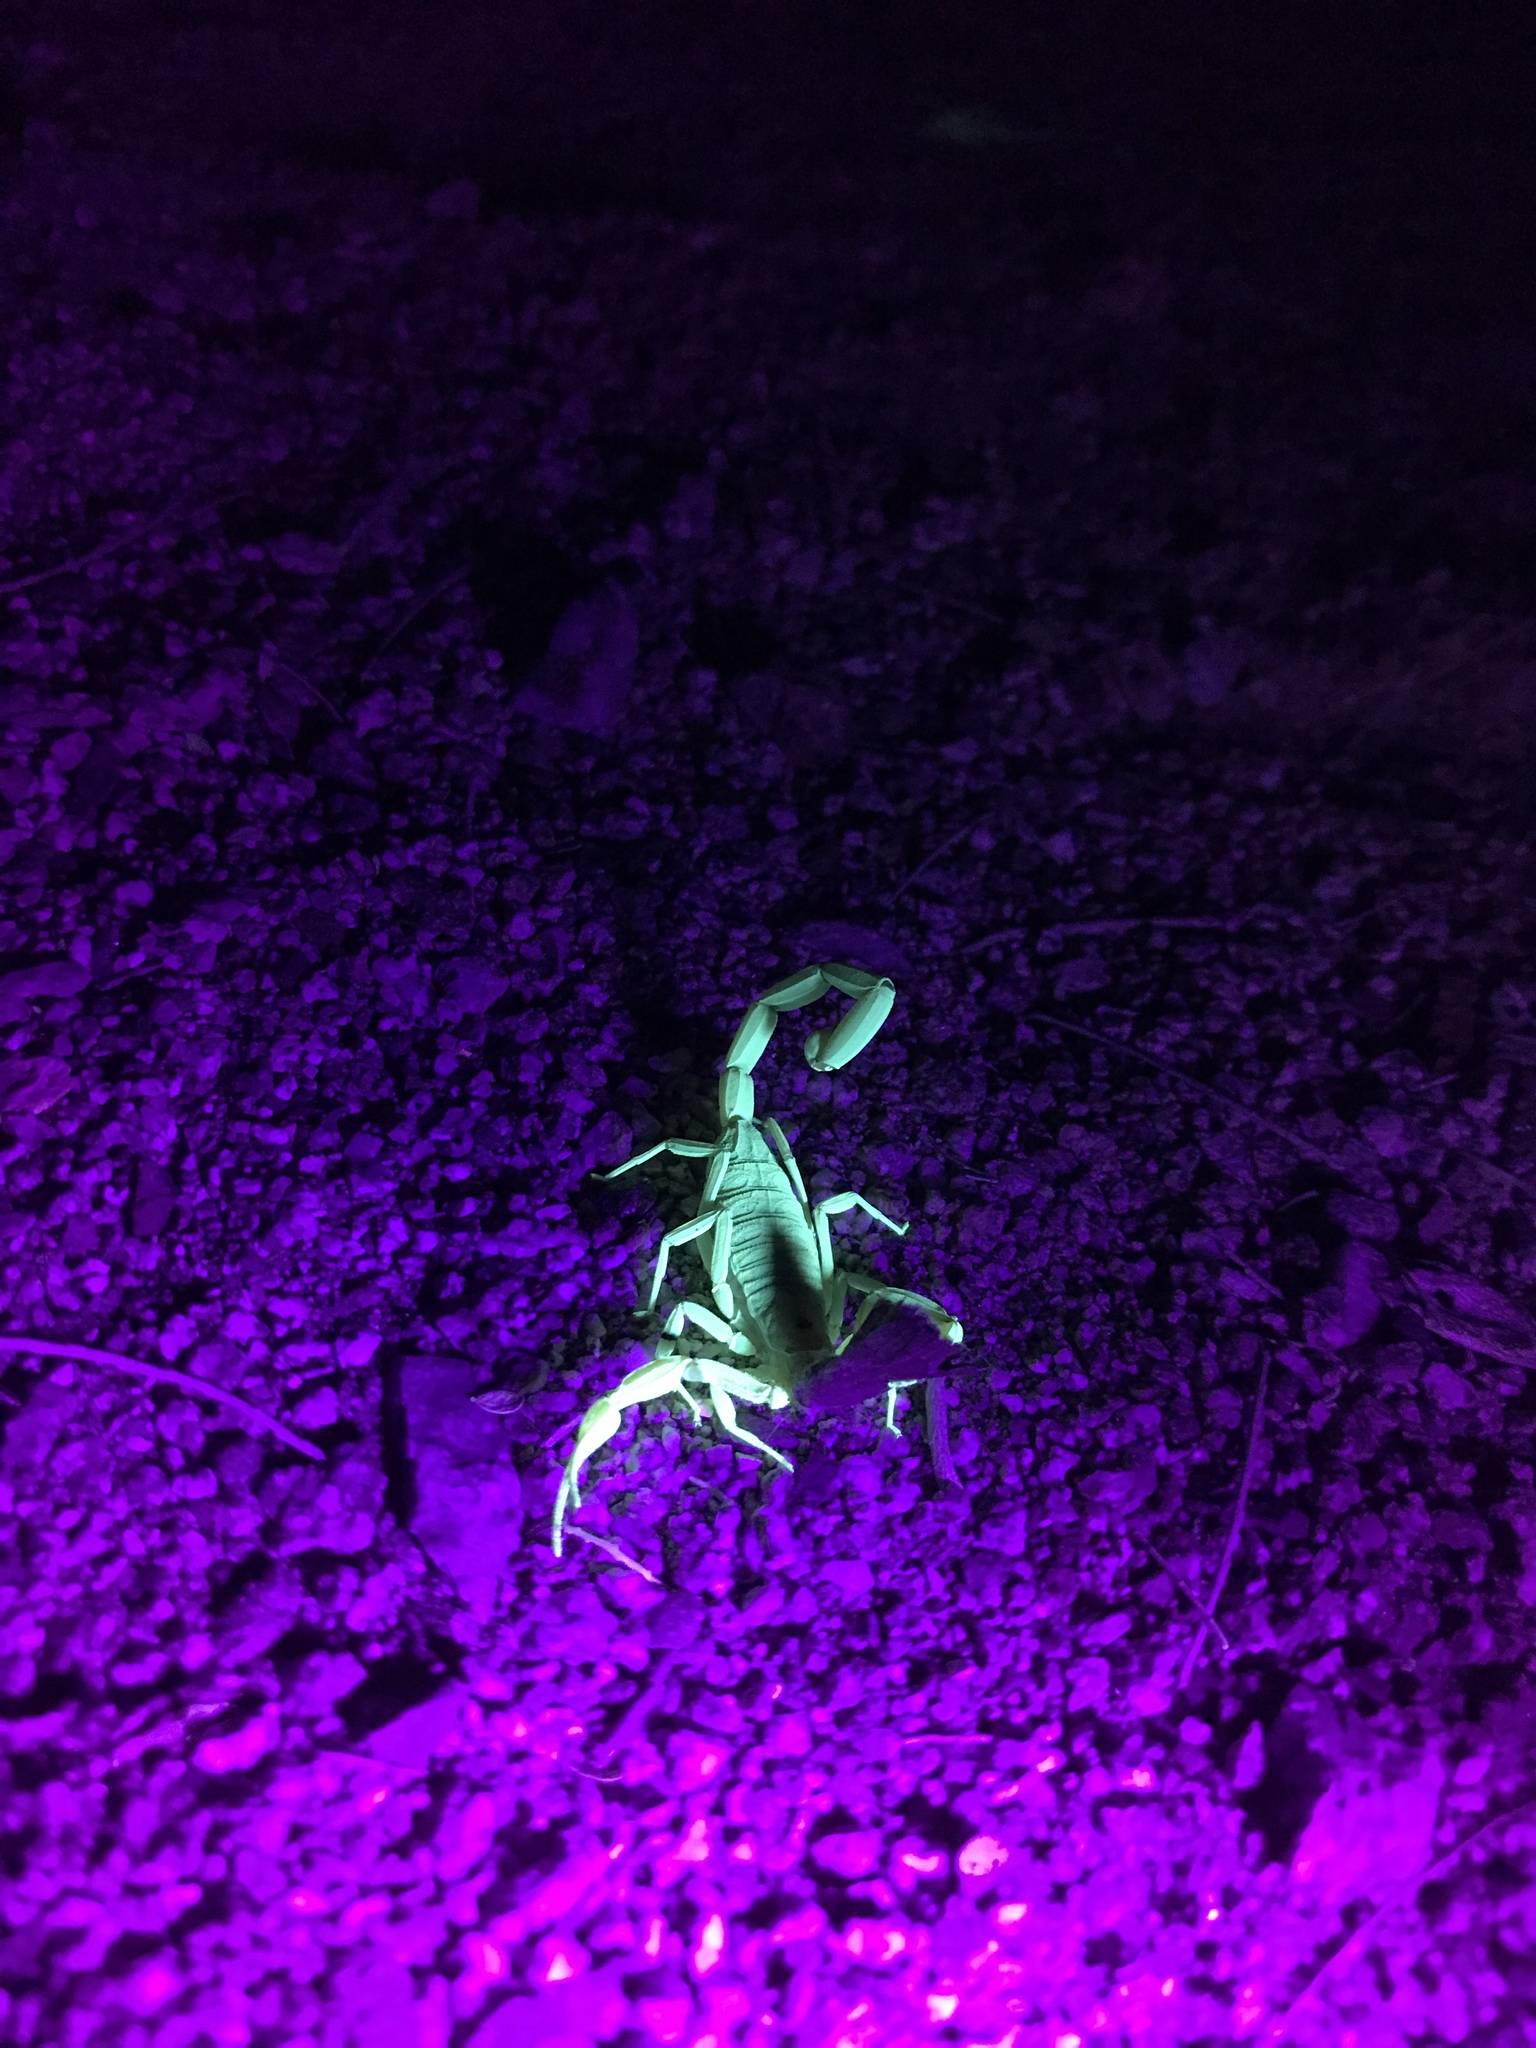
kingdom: Animalia
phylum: Arthropoda
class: Arachnida
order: Scorpiones
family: Buthidae
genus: Centruroides
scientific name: Centruroides exilicauda
